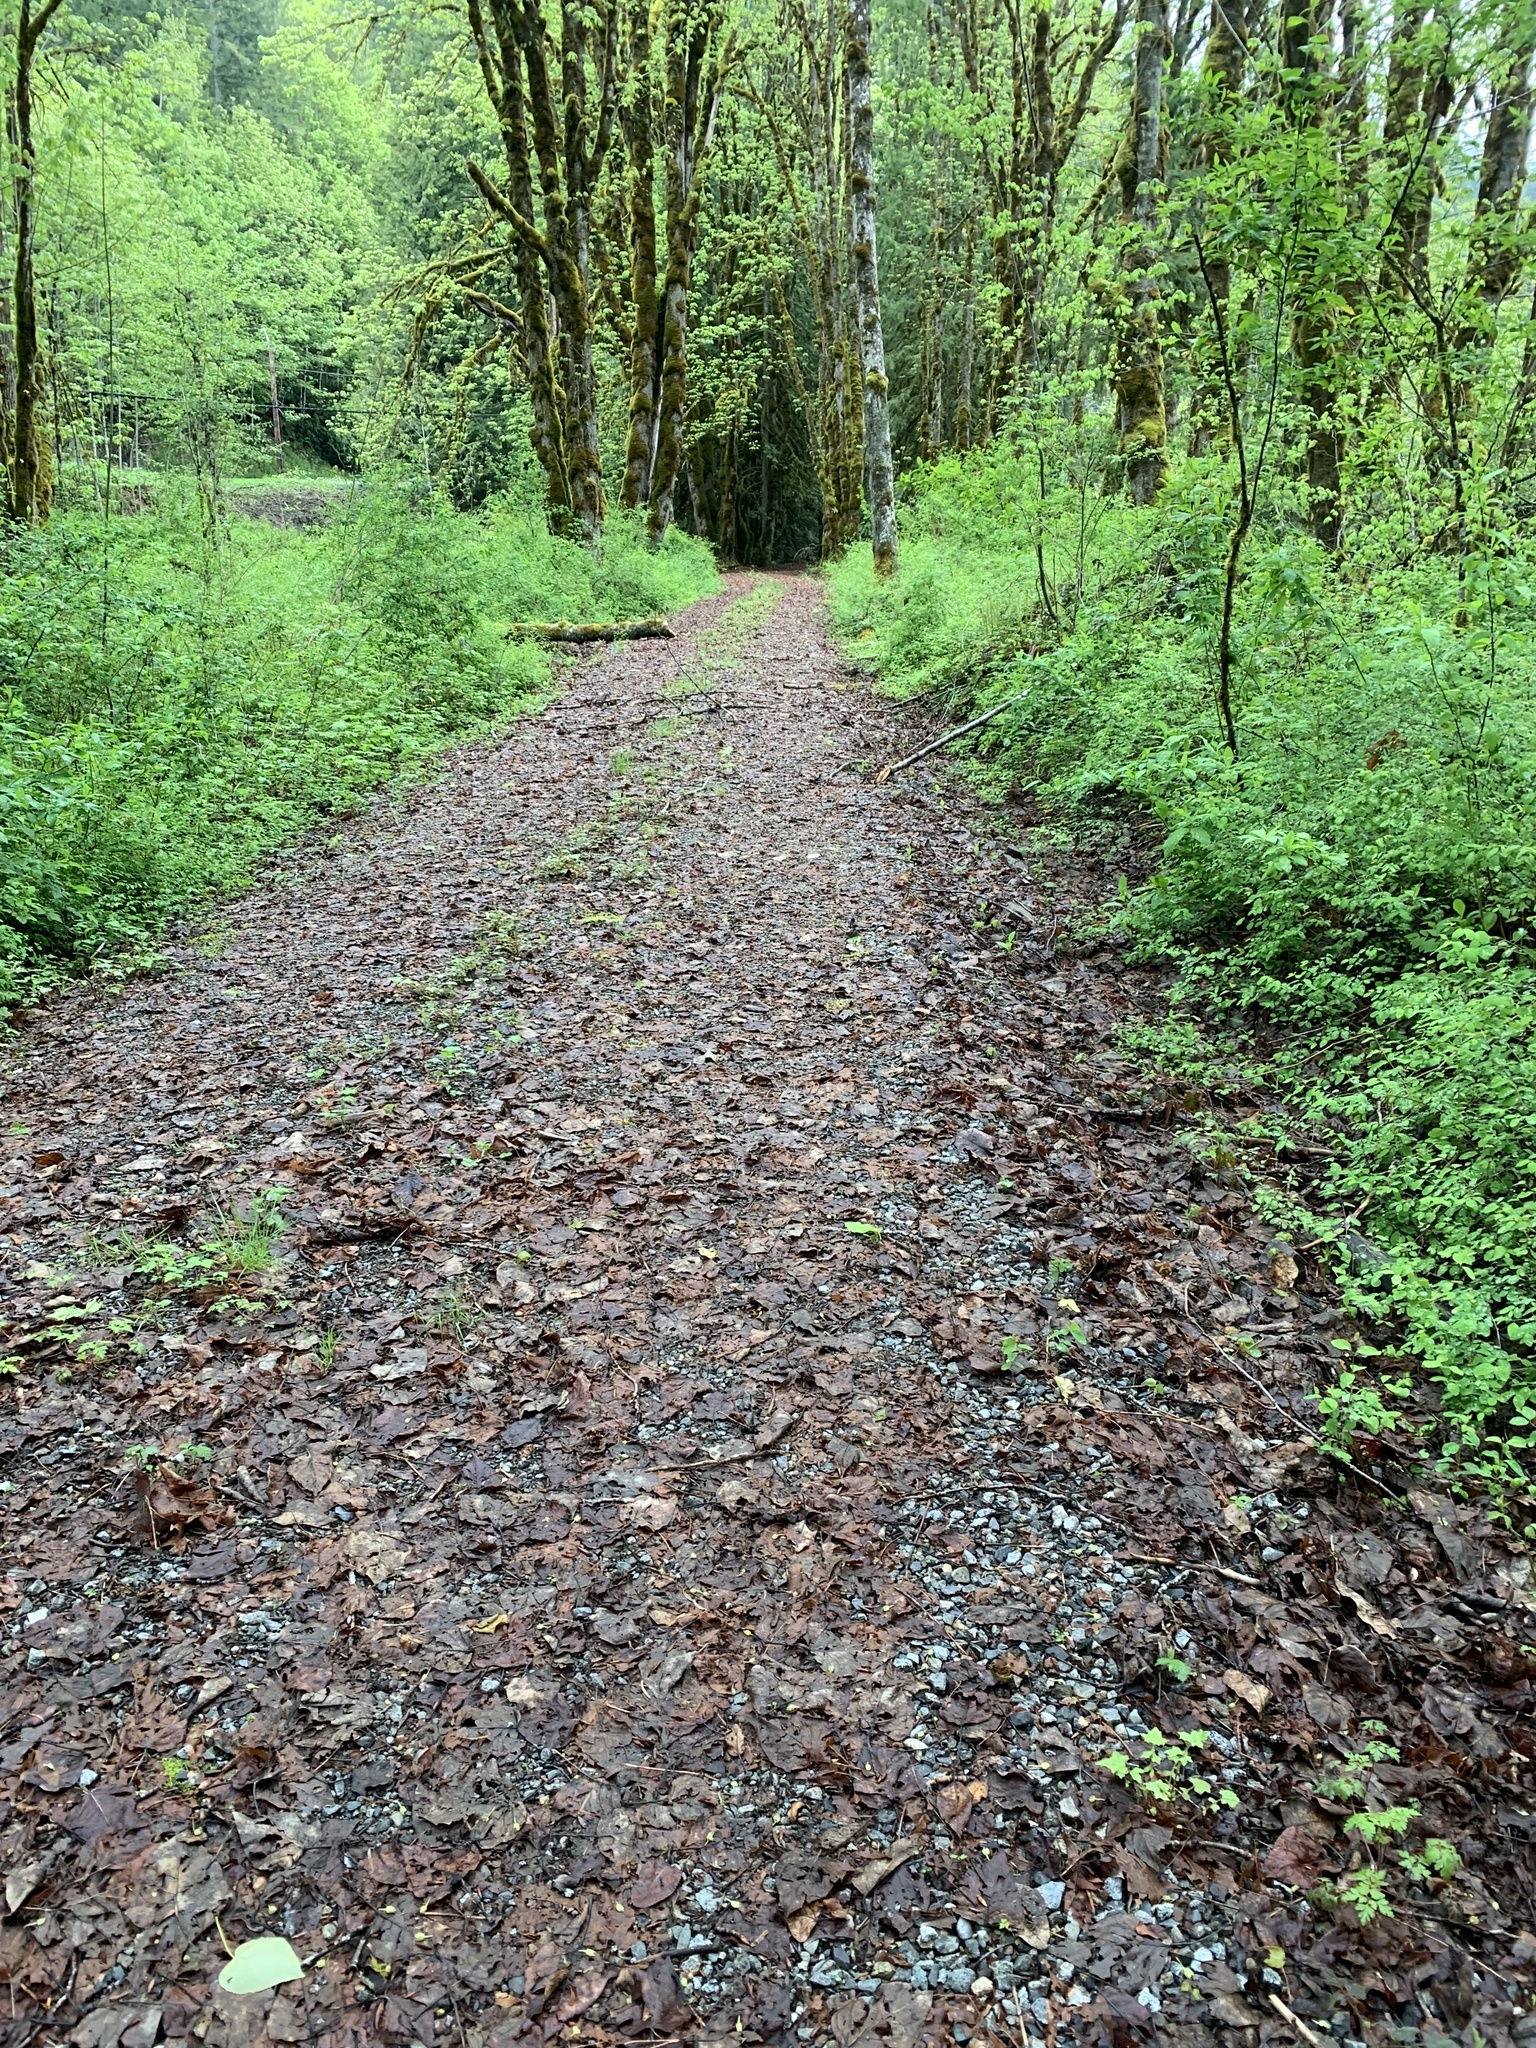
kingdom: Plantae
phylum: Tracheophyta
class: Magnoliopsida
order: Brassicales
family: Brassicaceae
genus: Alliaria
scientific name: Alliaria petiolata
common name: Garlic mustard
